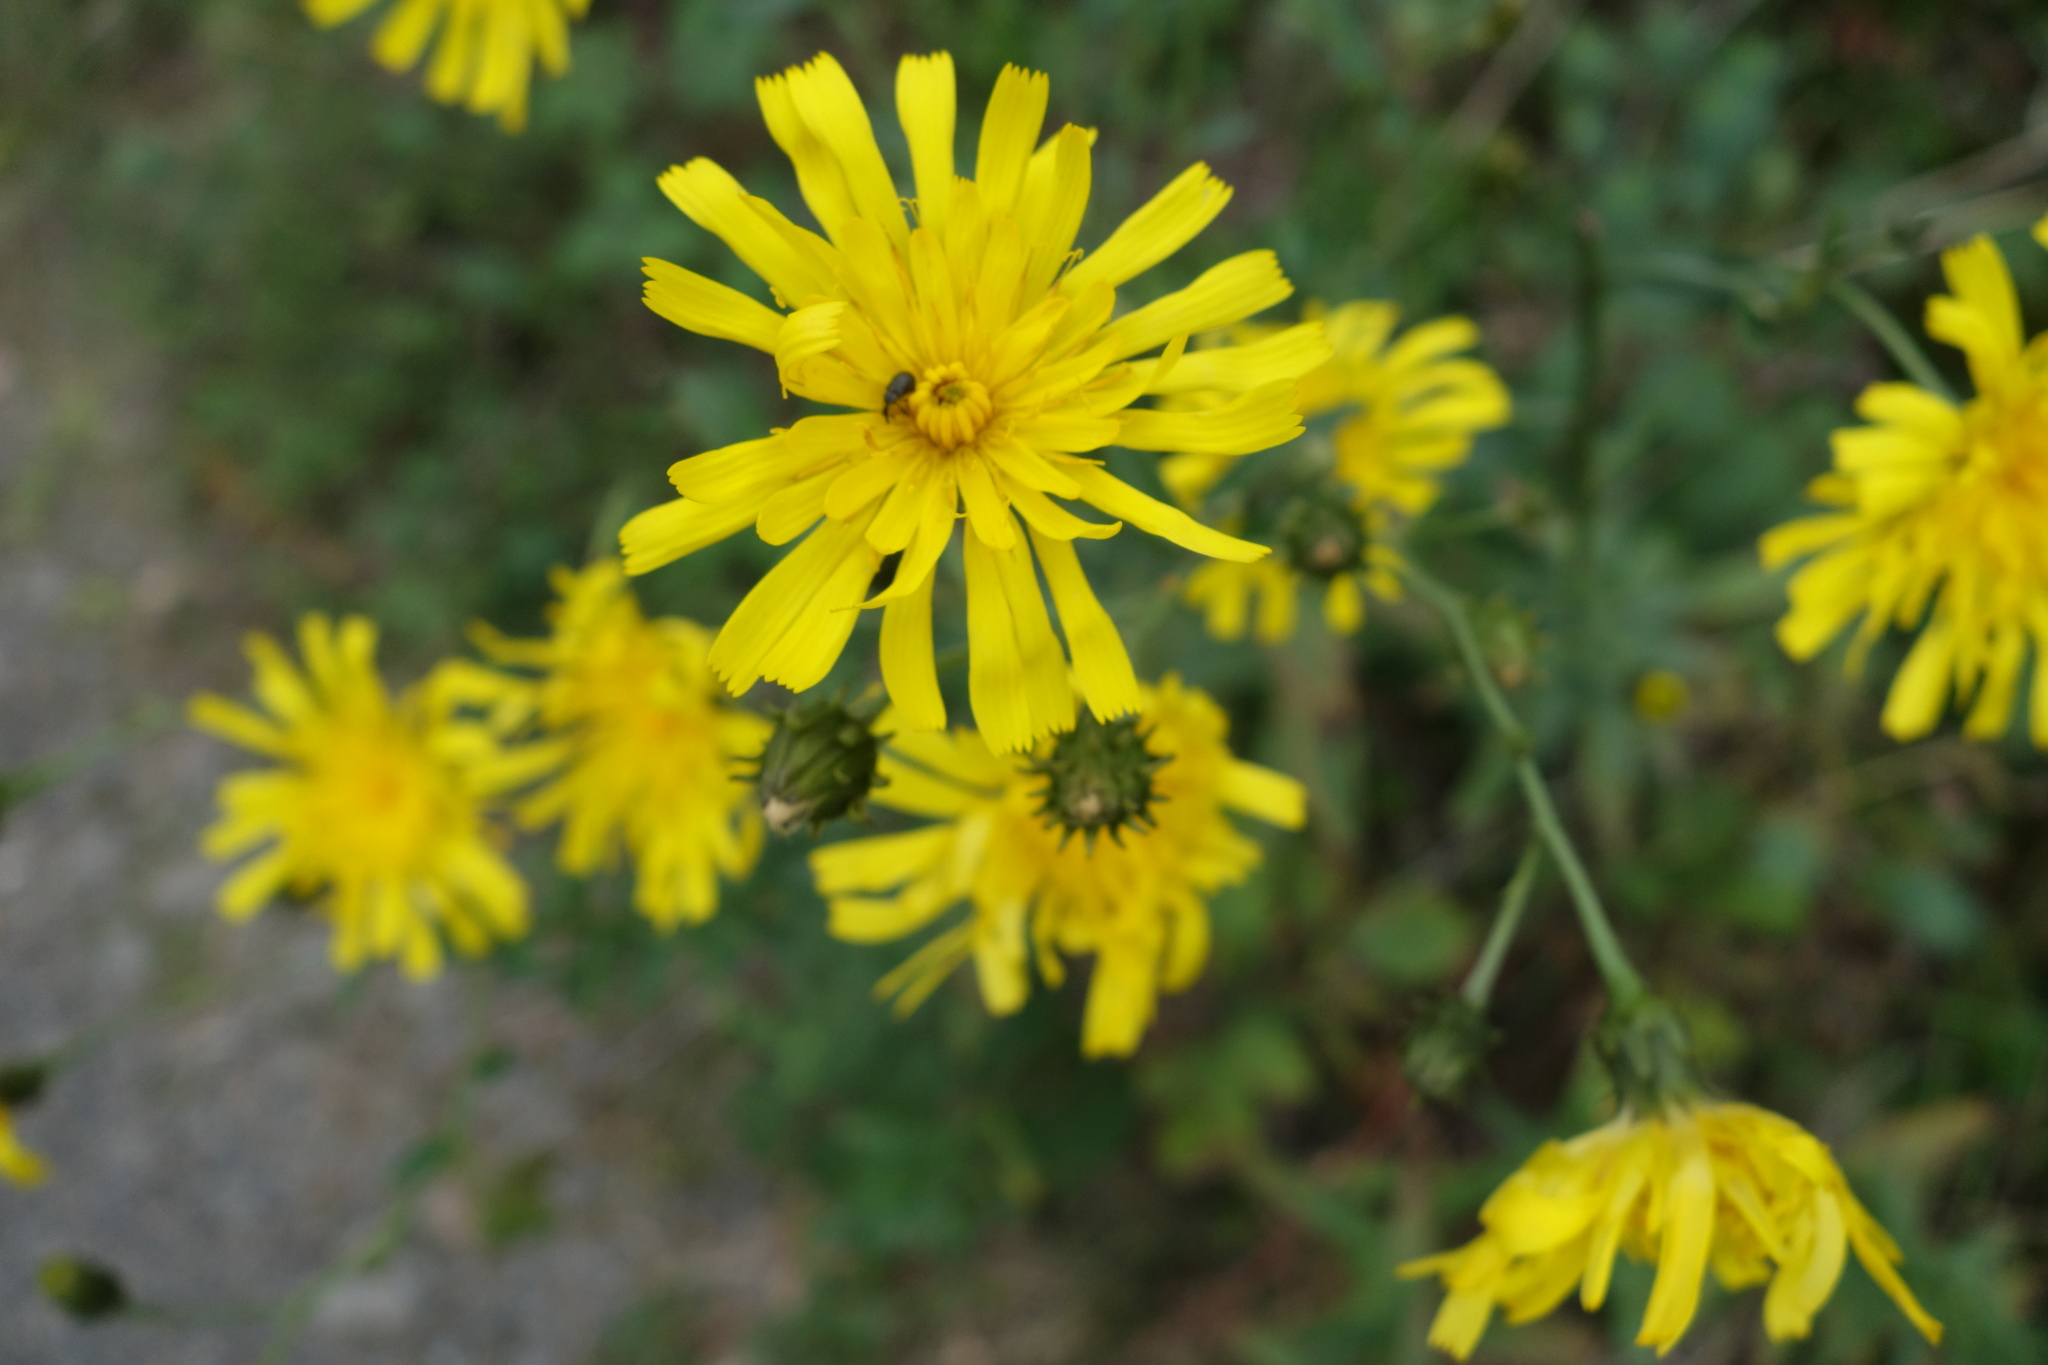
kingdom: Plantae
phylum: Tracheophyta
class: Magnoliopsida
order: Asterales
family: Asteraceae
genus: Hieracium
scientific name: Hieracium umbellatum
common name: Northern hawkweed
